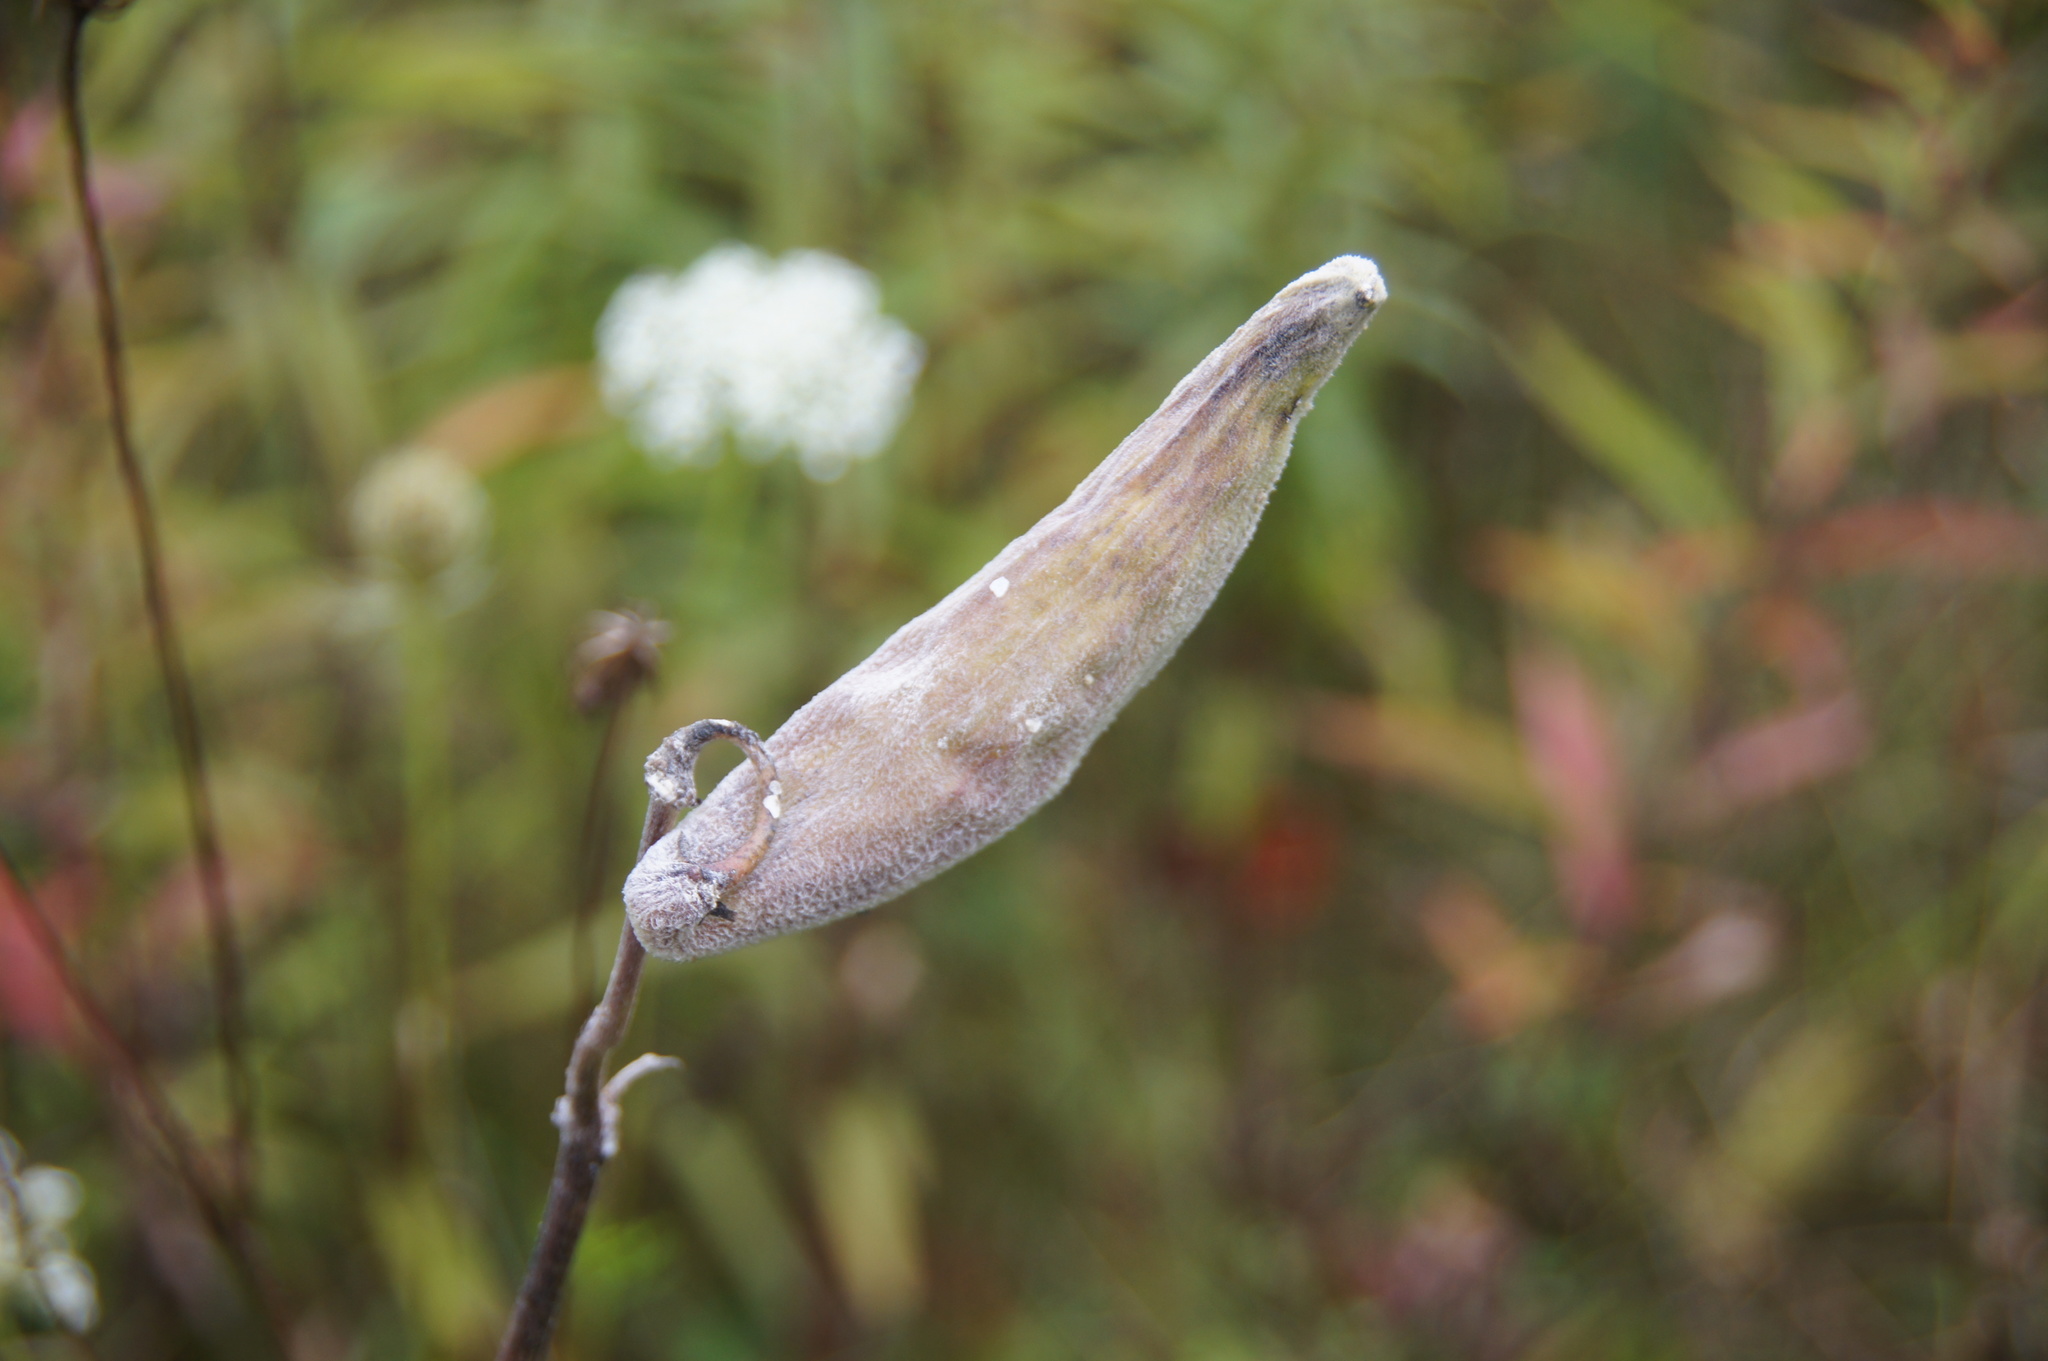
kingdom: Plantae
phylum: Tracheophyta
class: Magnoliopsida
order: Gentianales
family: Apocynaceae
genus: Asclepias
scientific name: Asclepias syriaca
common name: Common milkweed
